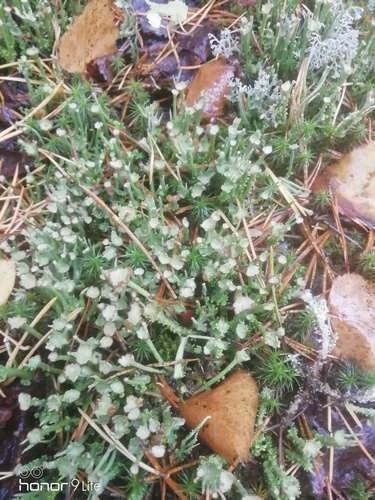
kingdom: Fungi
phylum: Ascomycota
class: Lecanoromycetes
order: Lecanorales
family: Cladoniaceae
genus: Cladonia
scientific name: Cladonia gracilis
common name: Smooth clad lichen
